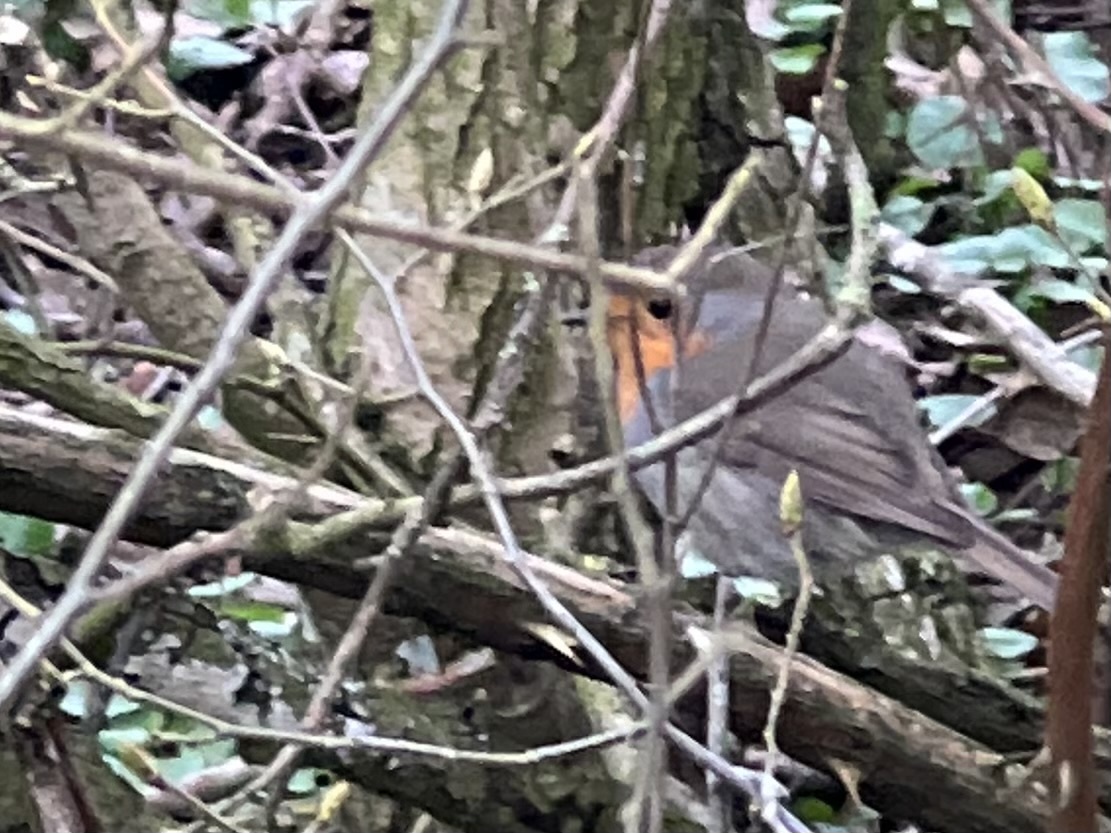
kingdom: Animalia
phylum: Chordata
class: Aves
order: Passeriformes
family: Muscicapidae
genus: Erithacus
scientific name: Erithacus rubecula
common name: European robin
